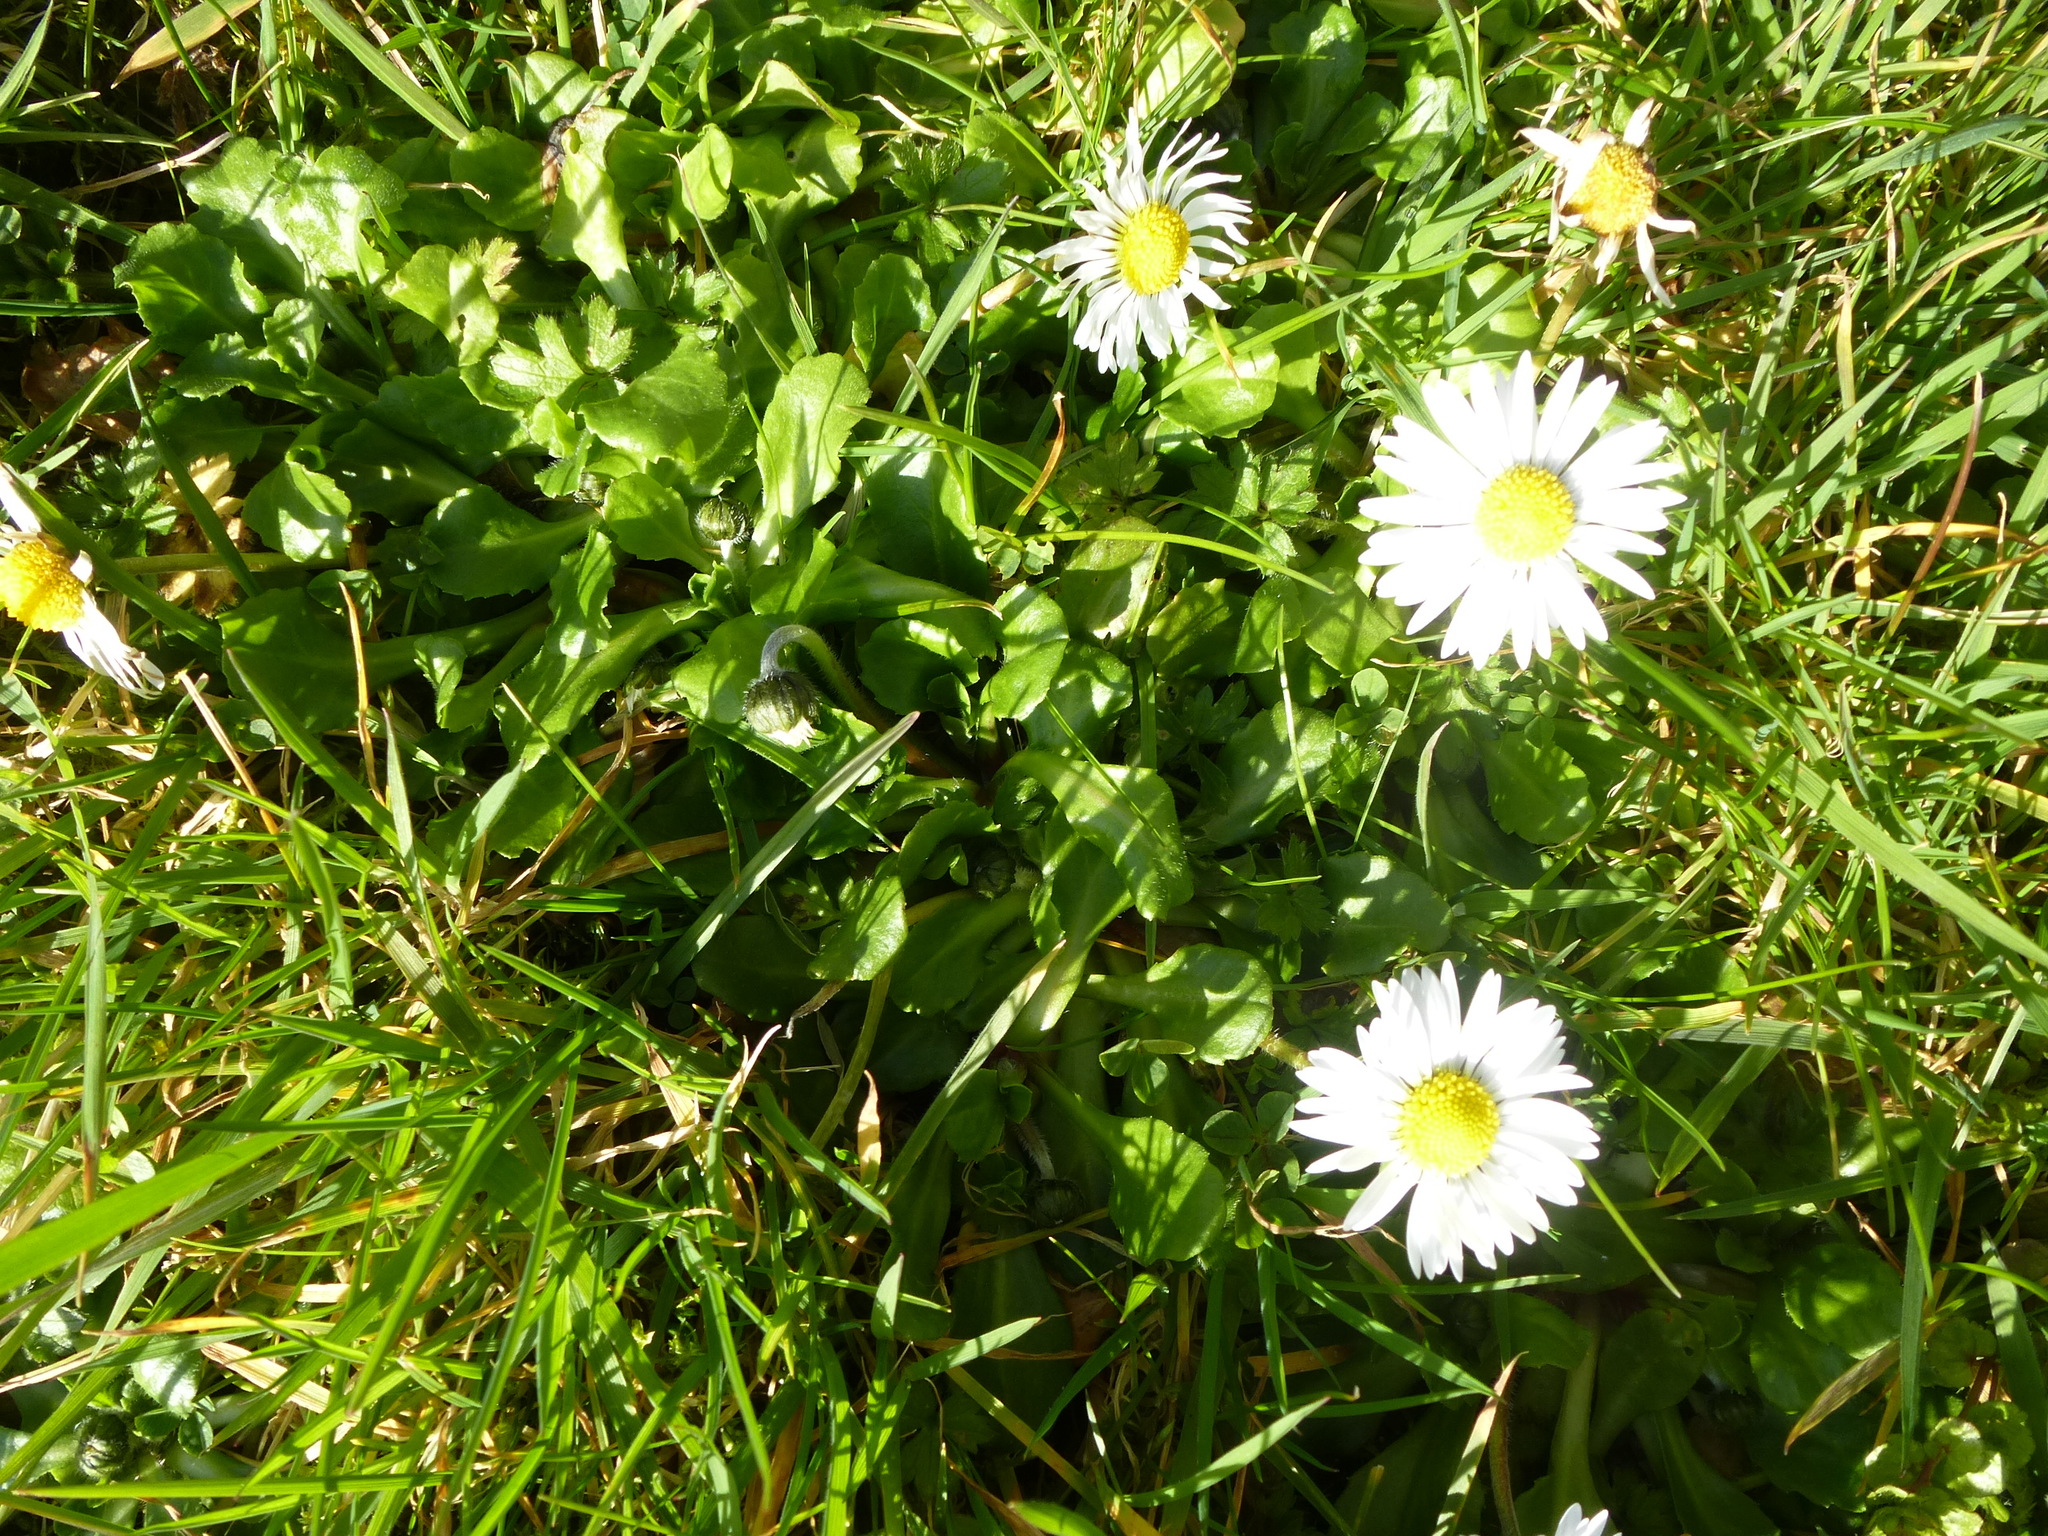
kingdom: Plantae
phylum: Tracheophyta
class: Magnoliopsida
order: Asterales
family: Asteraceae
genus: Bellis
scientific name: Bellis perennis
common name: Lawndaisy
